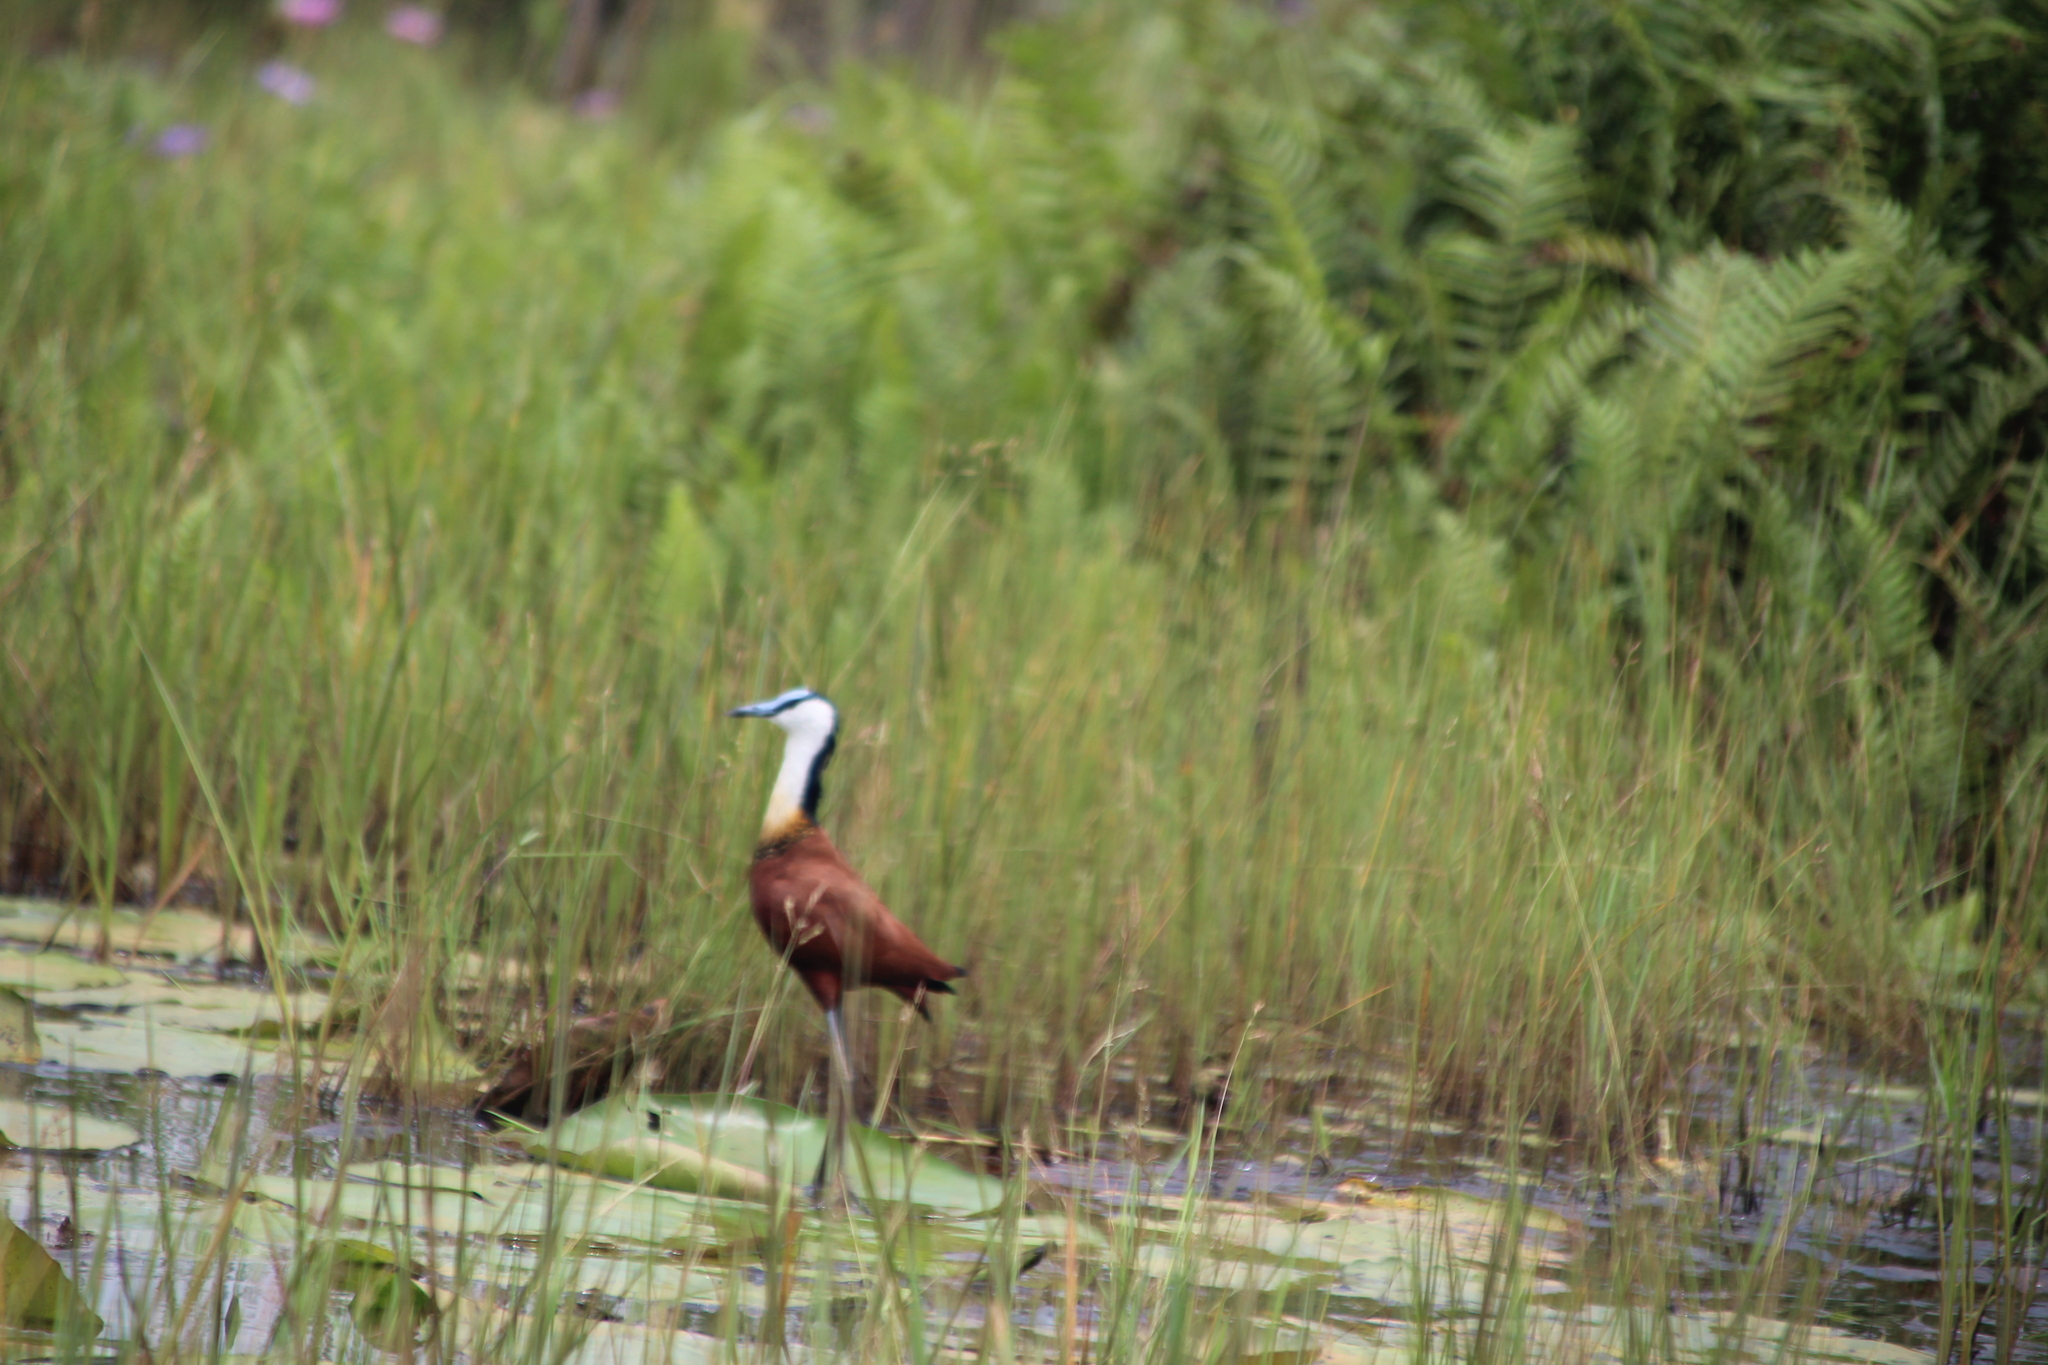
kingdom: Animalia
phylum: Chordata
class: Aves
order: Charadriiformes
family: Jacanidae
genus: Actophilornis
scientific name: Actophilornis africanus
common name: African jacana
